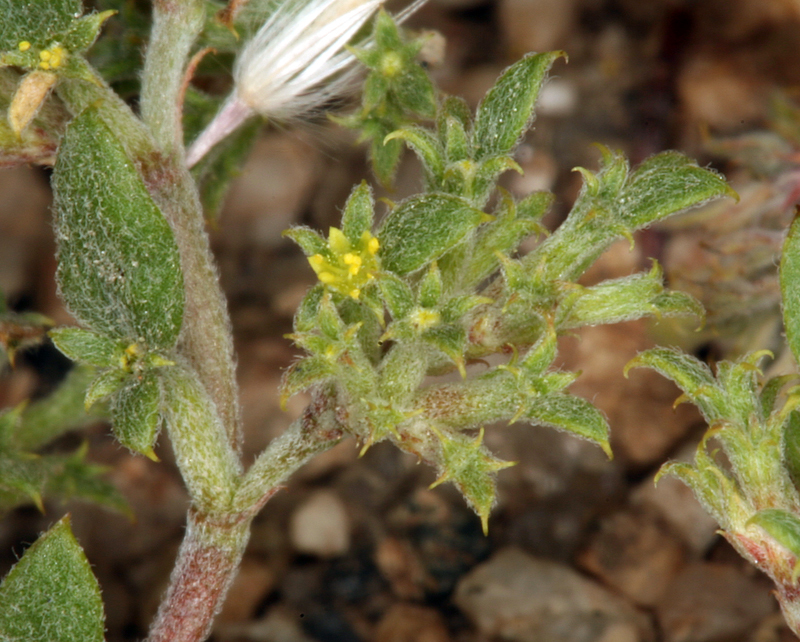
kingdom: Plantae
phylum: Tracheophyta
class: Magnoliopsida
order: Caryophyllales
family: Polygonaceae
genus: Chorizanthe
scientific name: Chorizanthe watsonii
